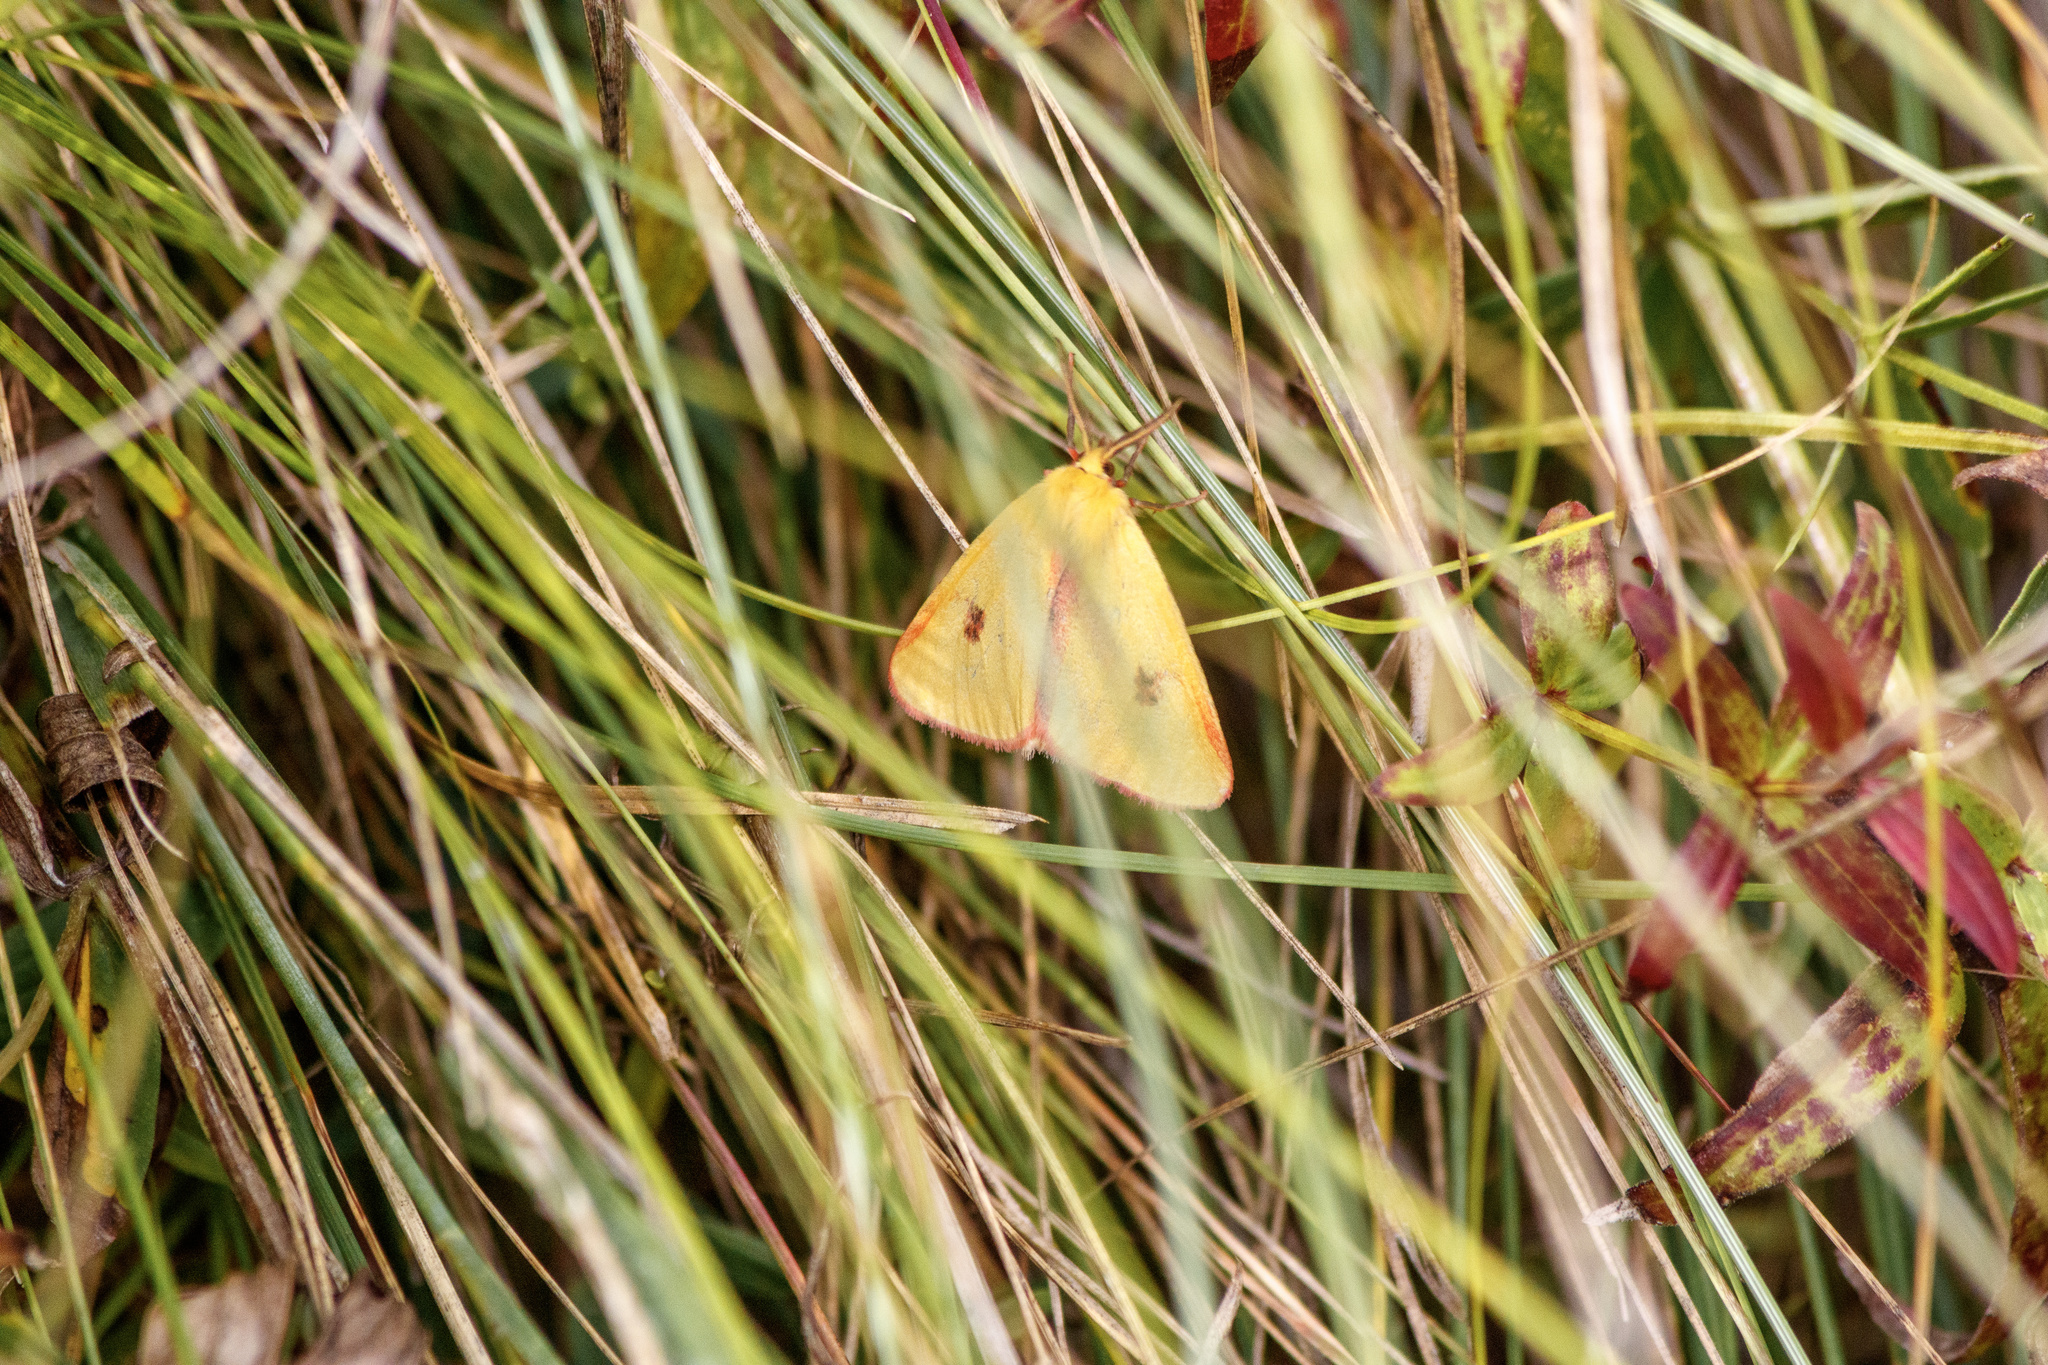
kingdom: Animalia
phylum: Arthropoda
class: Insecta
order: Lepidoptera
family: Erebidae
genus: Diacrisia
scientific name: Diacrisia sannio
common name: Clouded buff
